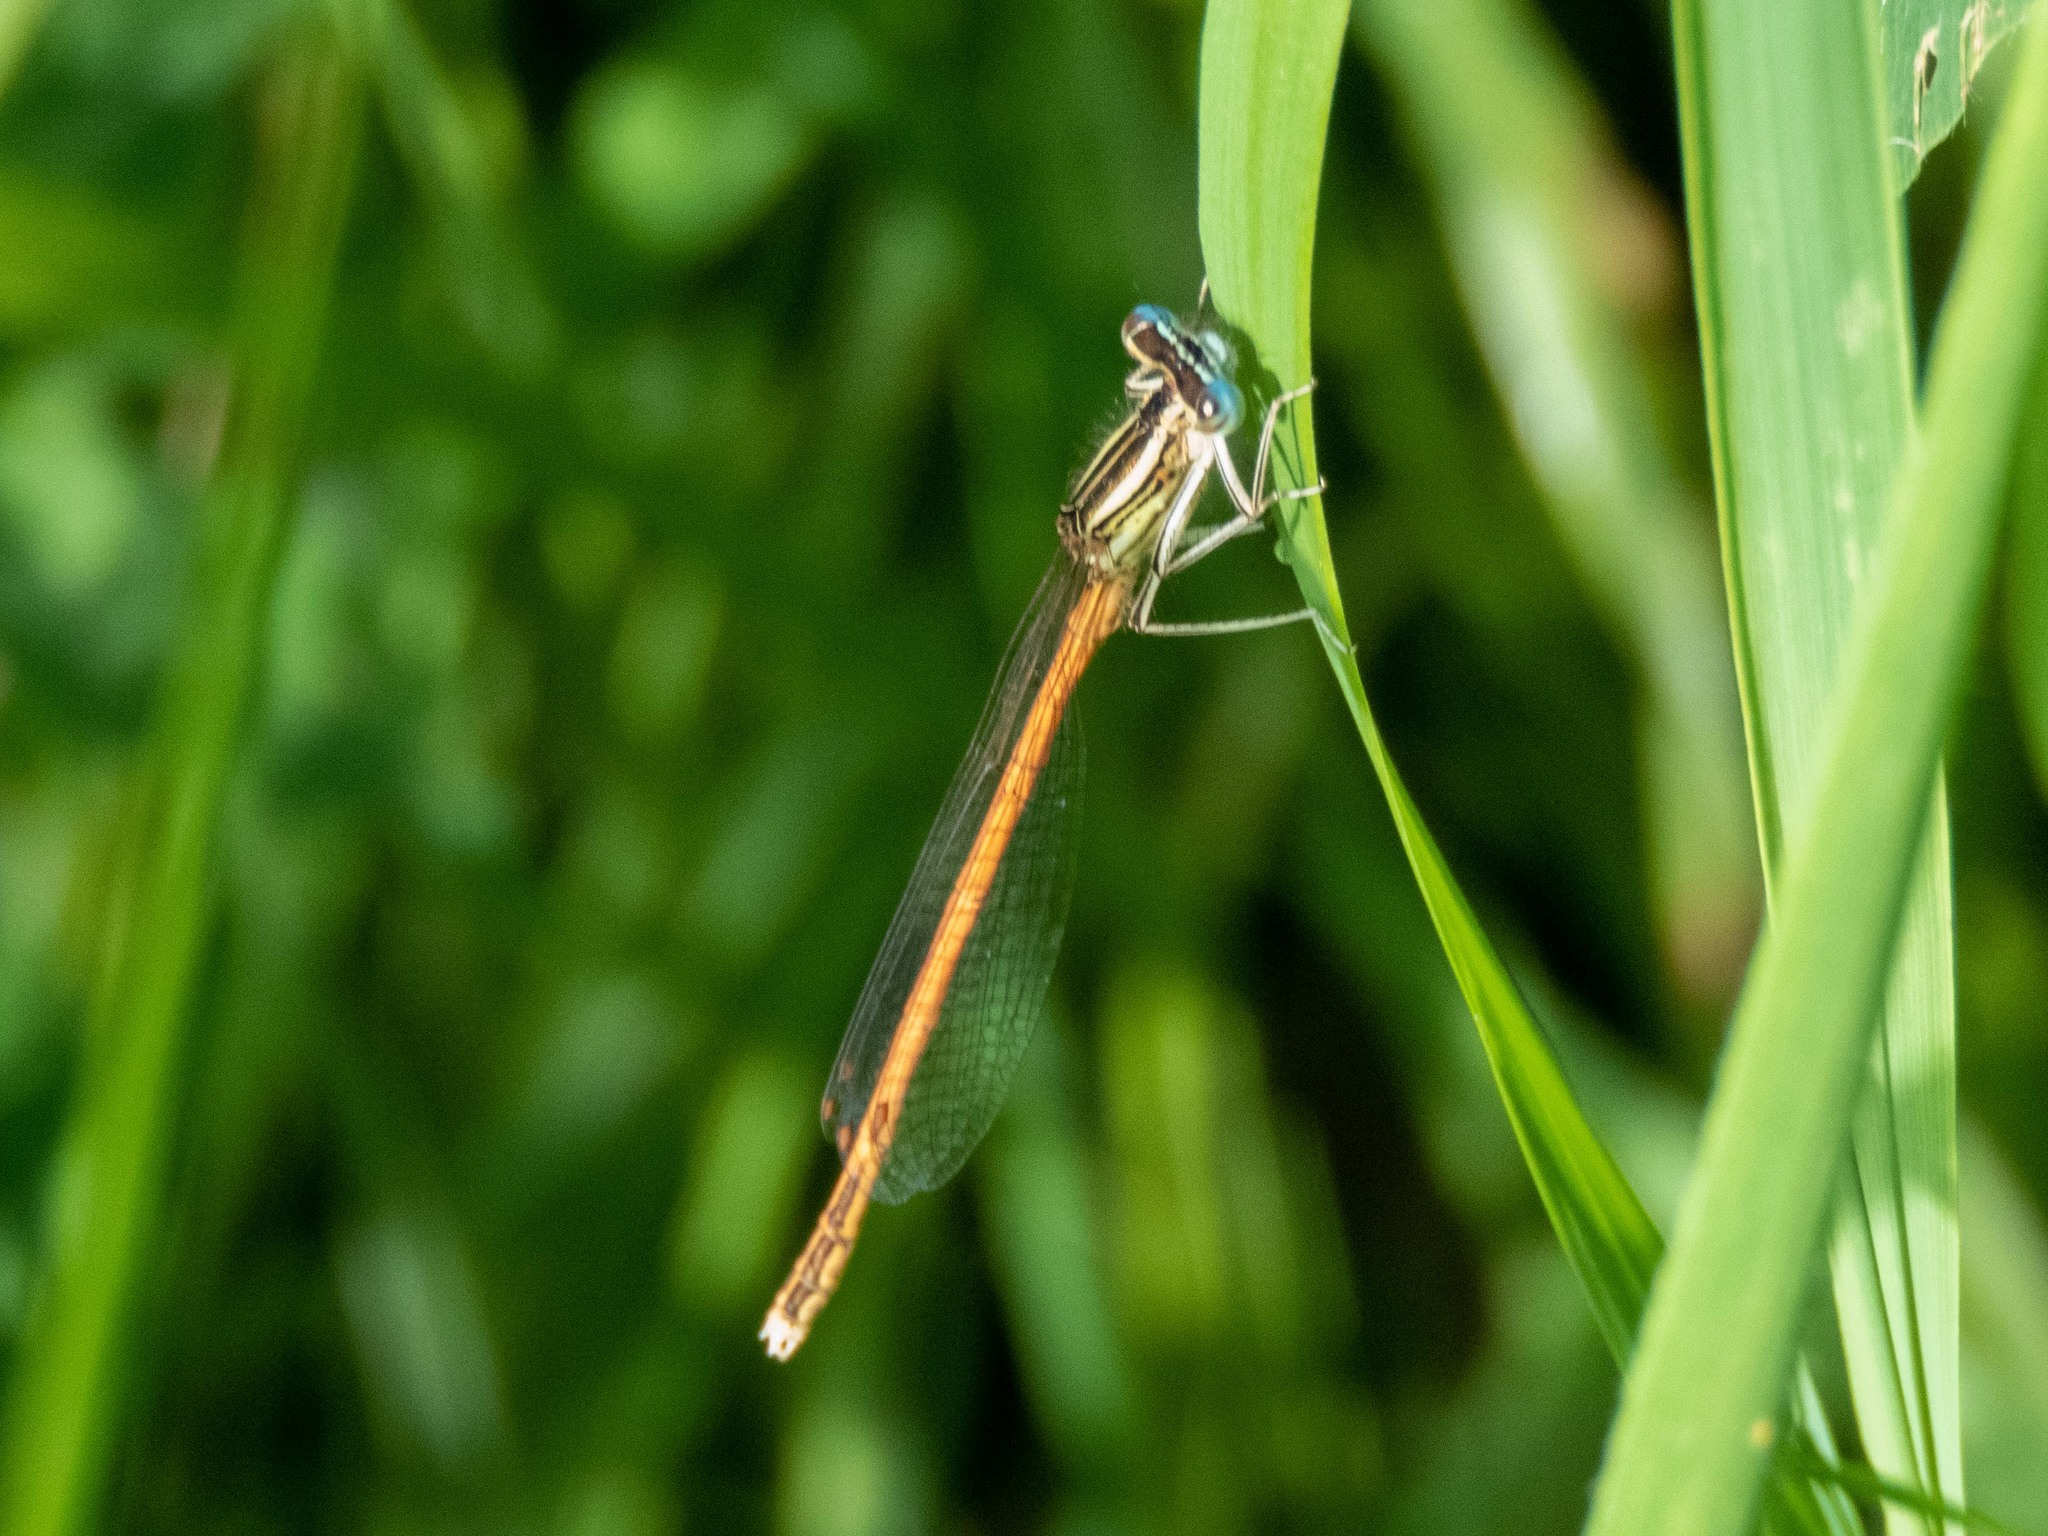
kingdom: Animalia
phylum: Arthropoda
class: Insecta
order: Odonata
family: Platycnemididae
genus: Platycnemis
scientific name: Platycnemis acutipennis
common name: Orange featherleg
